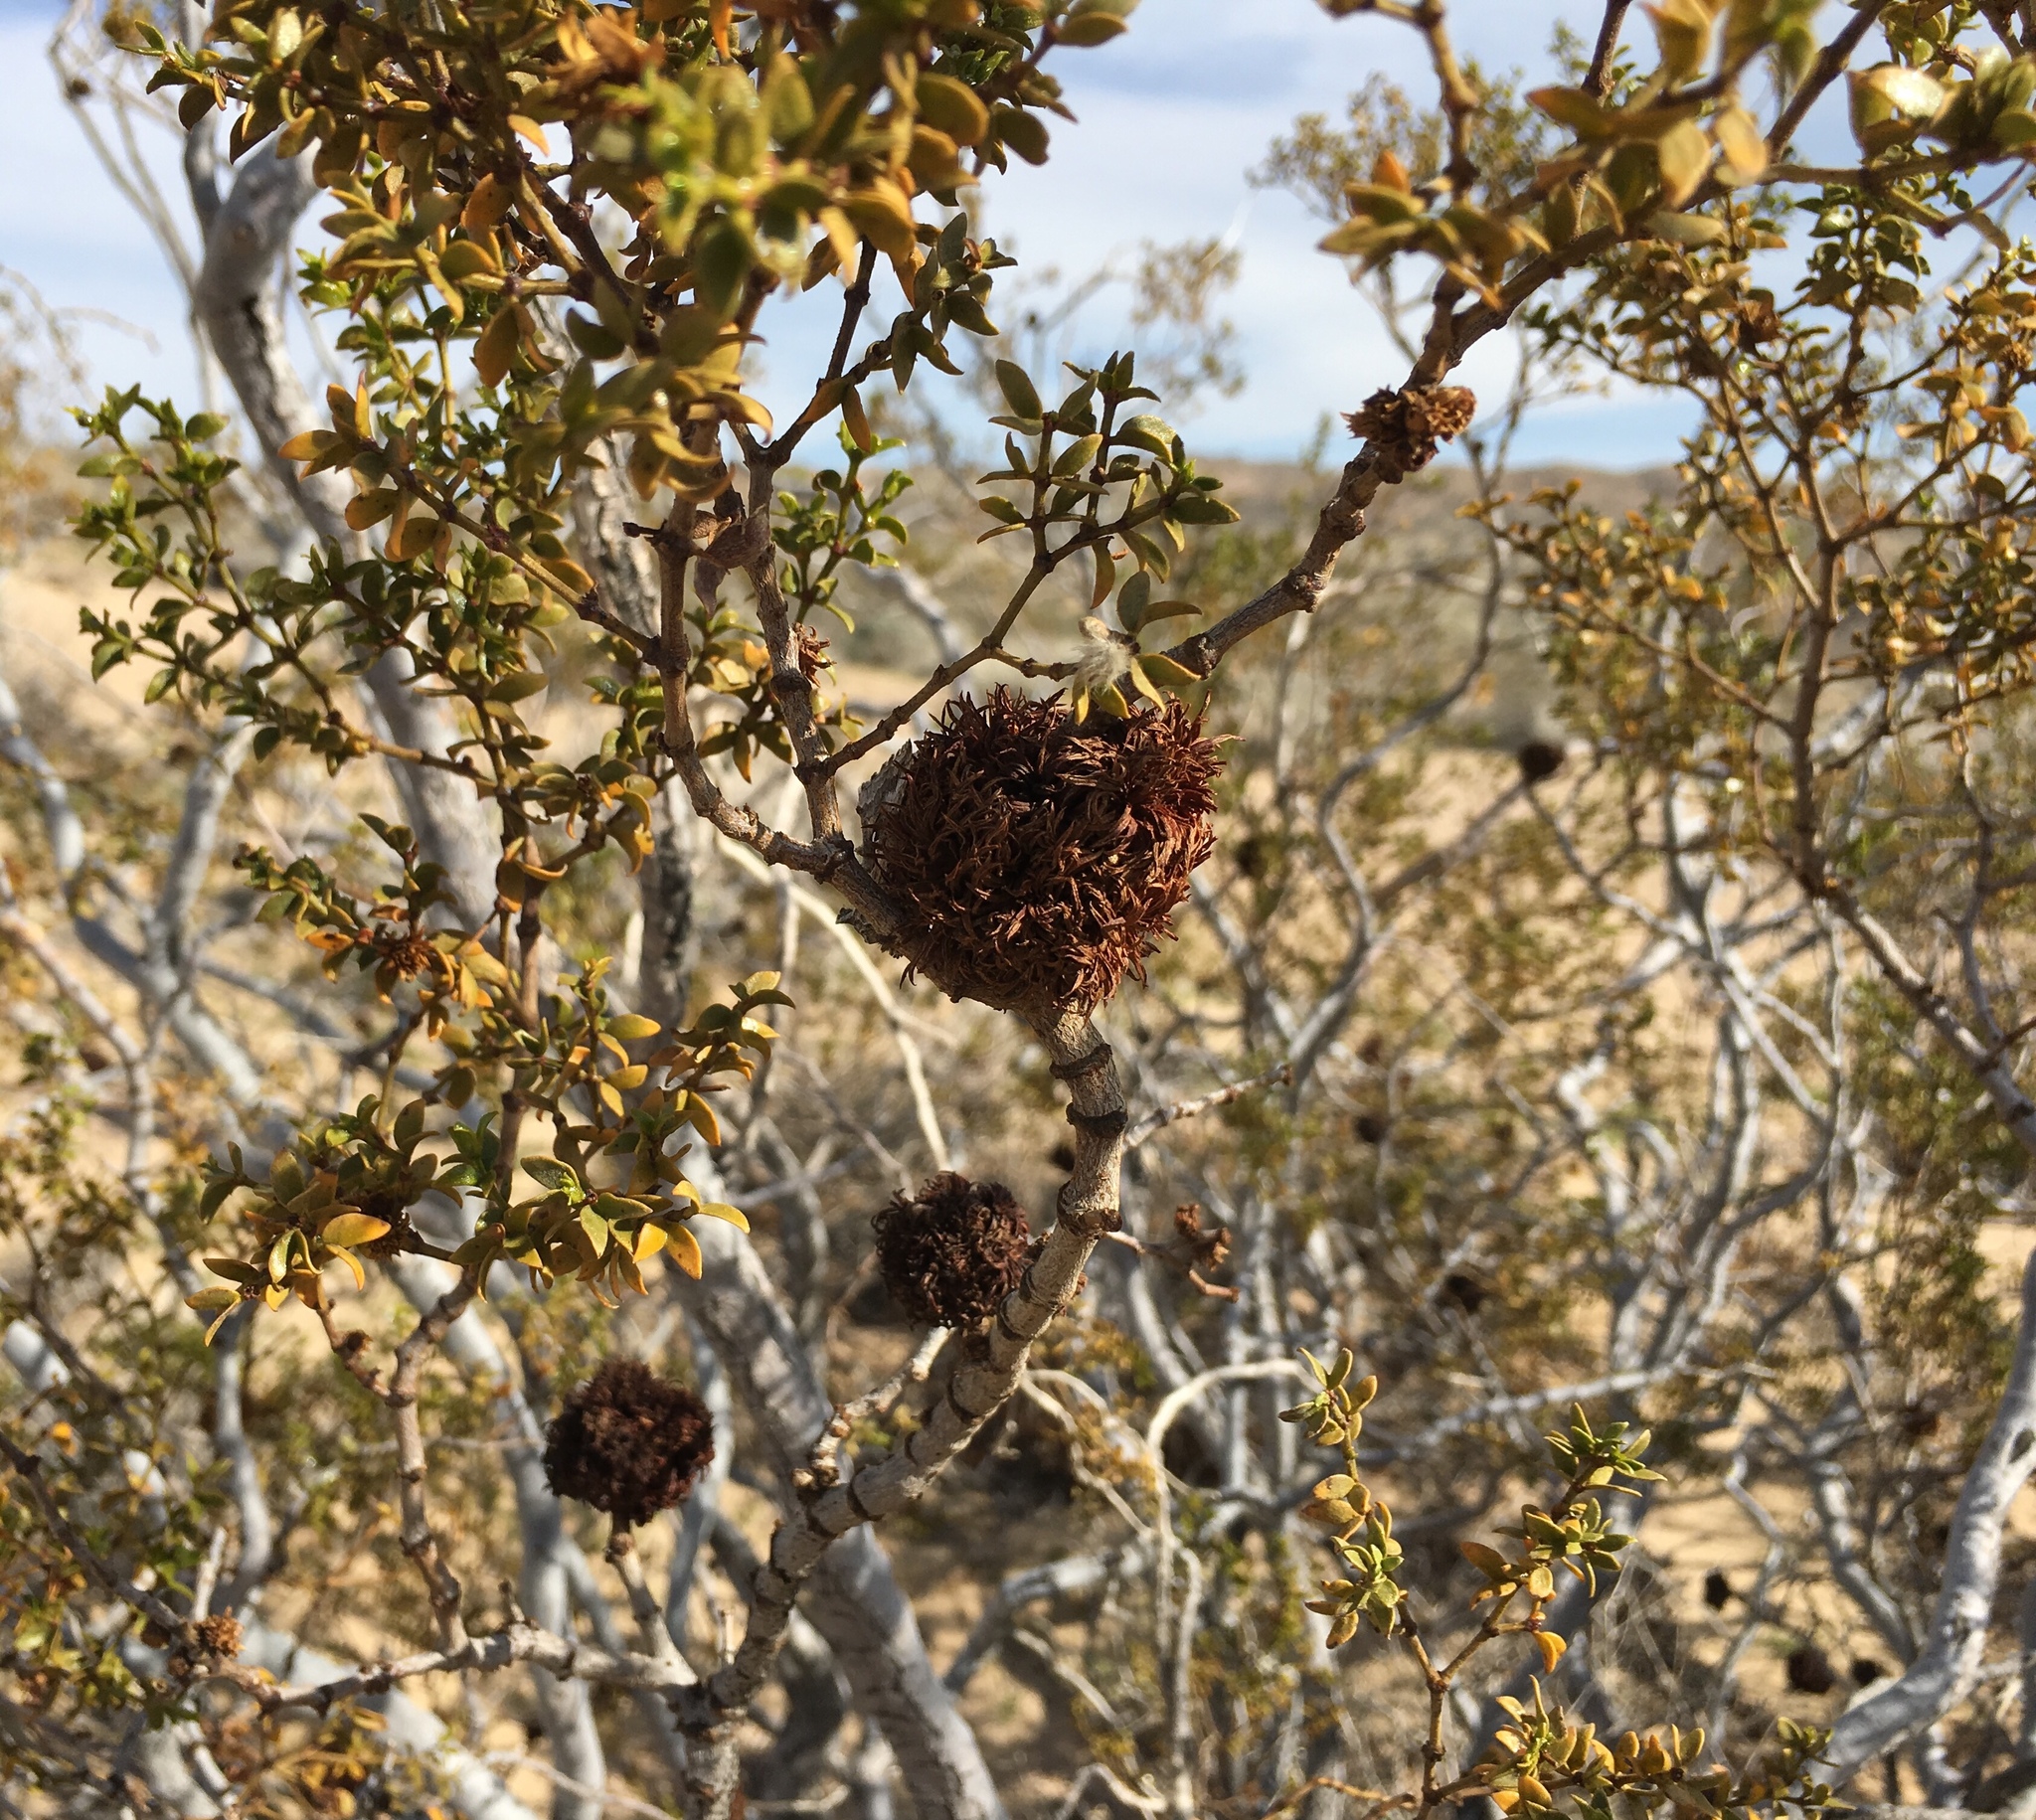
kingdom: Plantae
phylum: Tracheophyta
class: Magnoliopsida
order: Zygophyllales
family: Zygophyllaceae
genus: Larrea
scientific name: Larrea tridentata
